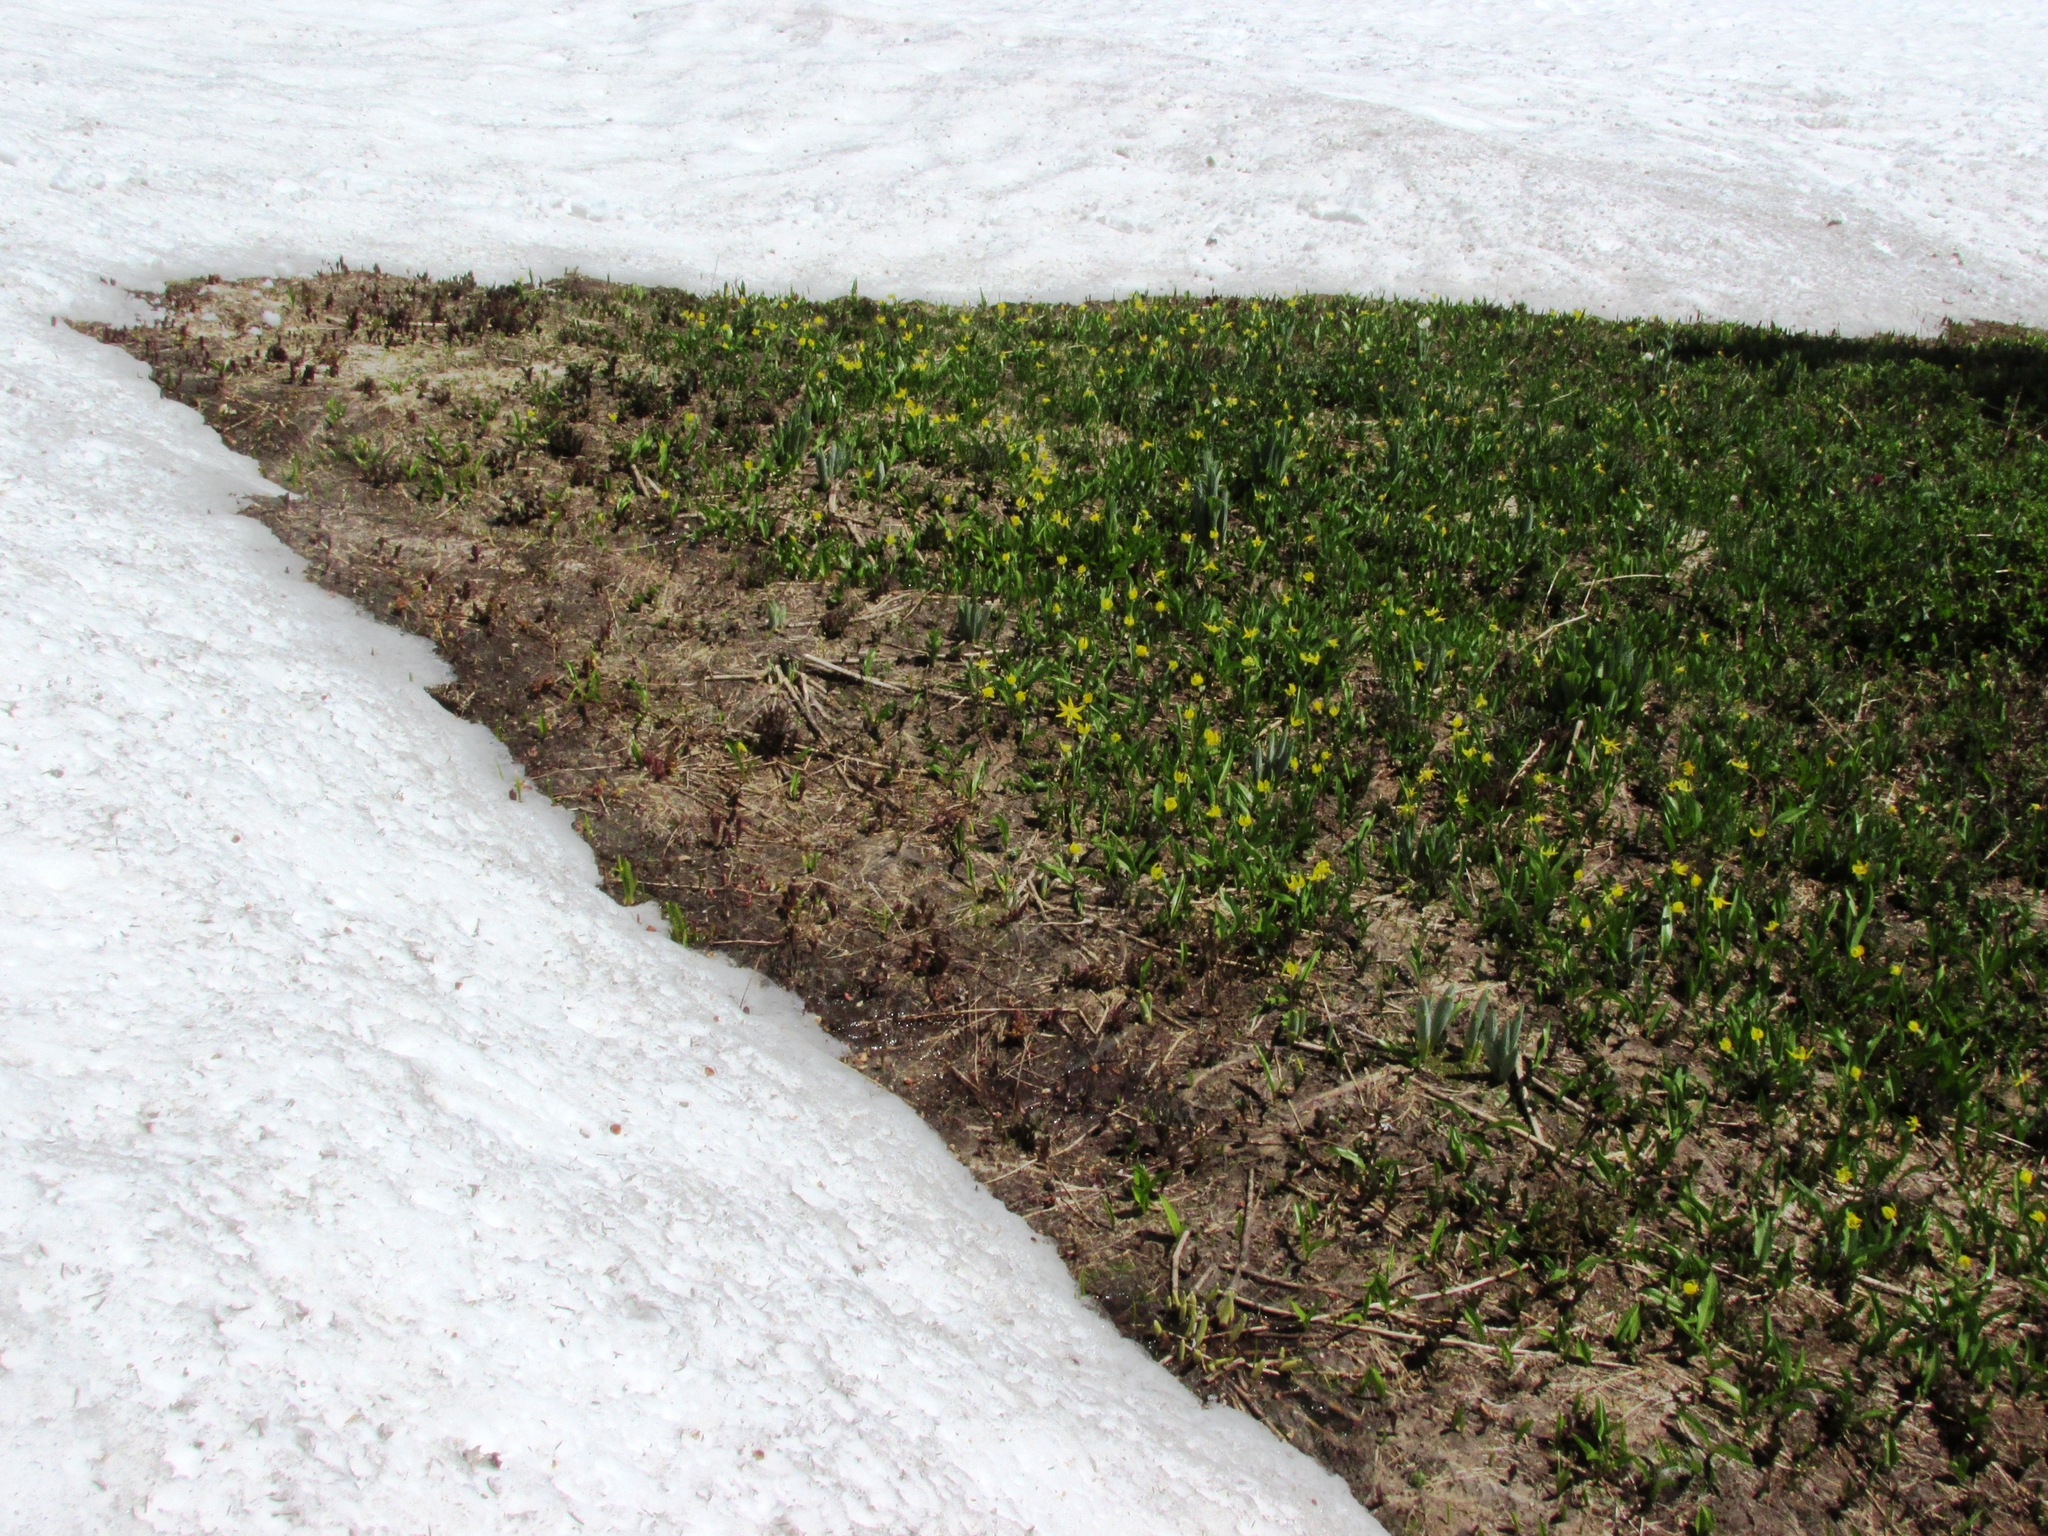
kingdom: Plantae
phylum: Tracheophyta
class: Liliopsida
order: Liliales
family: Liliaceae
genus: Erythronium
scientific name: Erythronium grandiflorum
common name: Avalanche-lily
